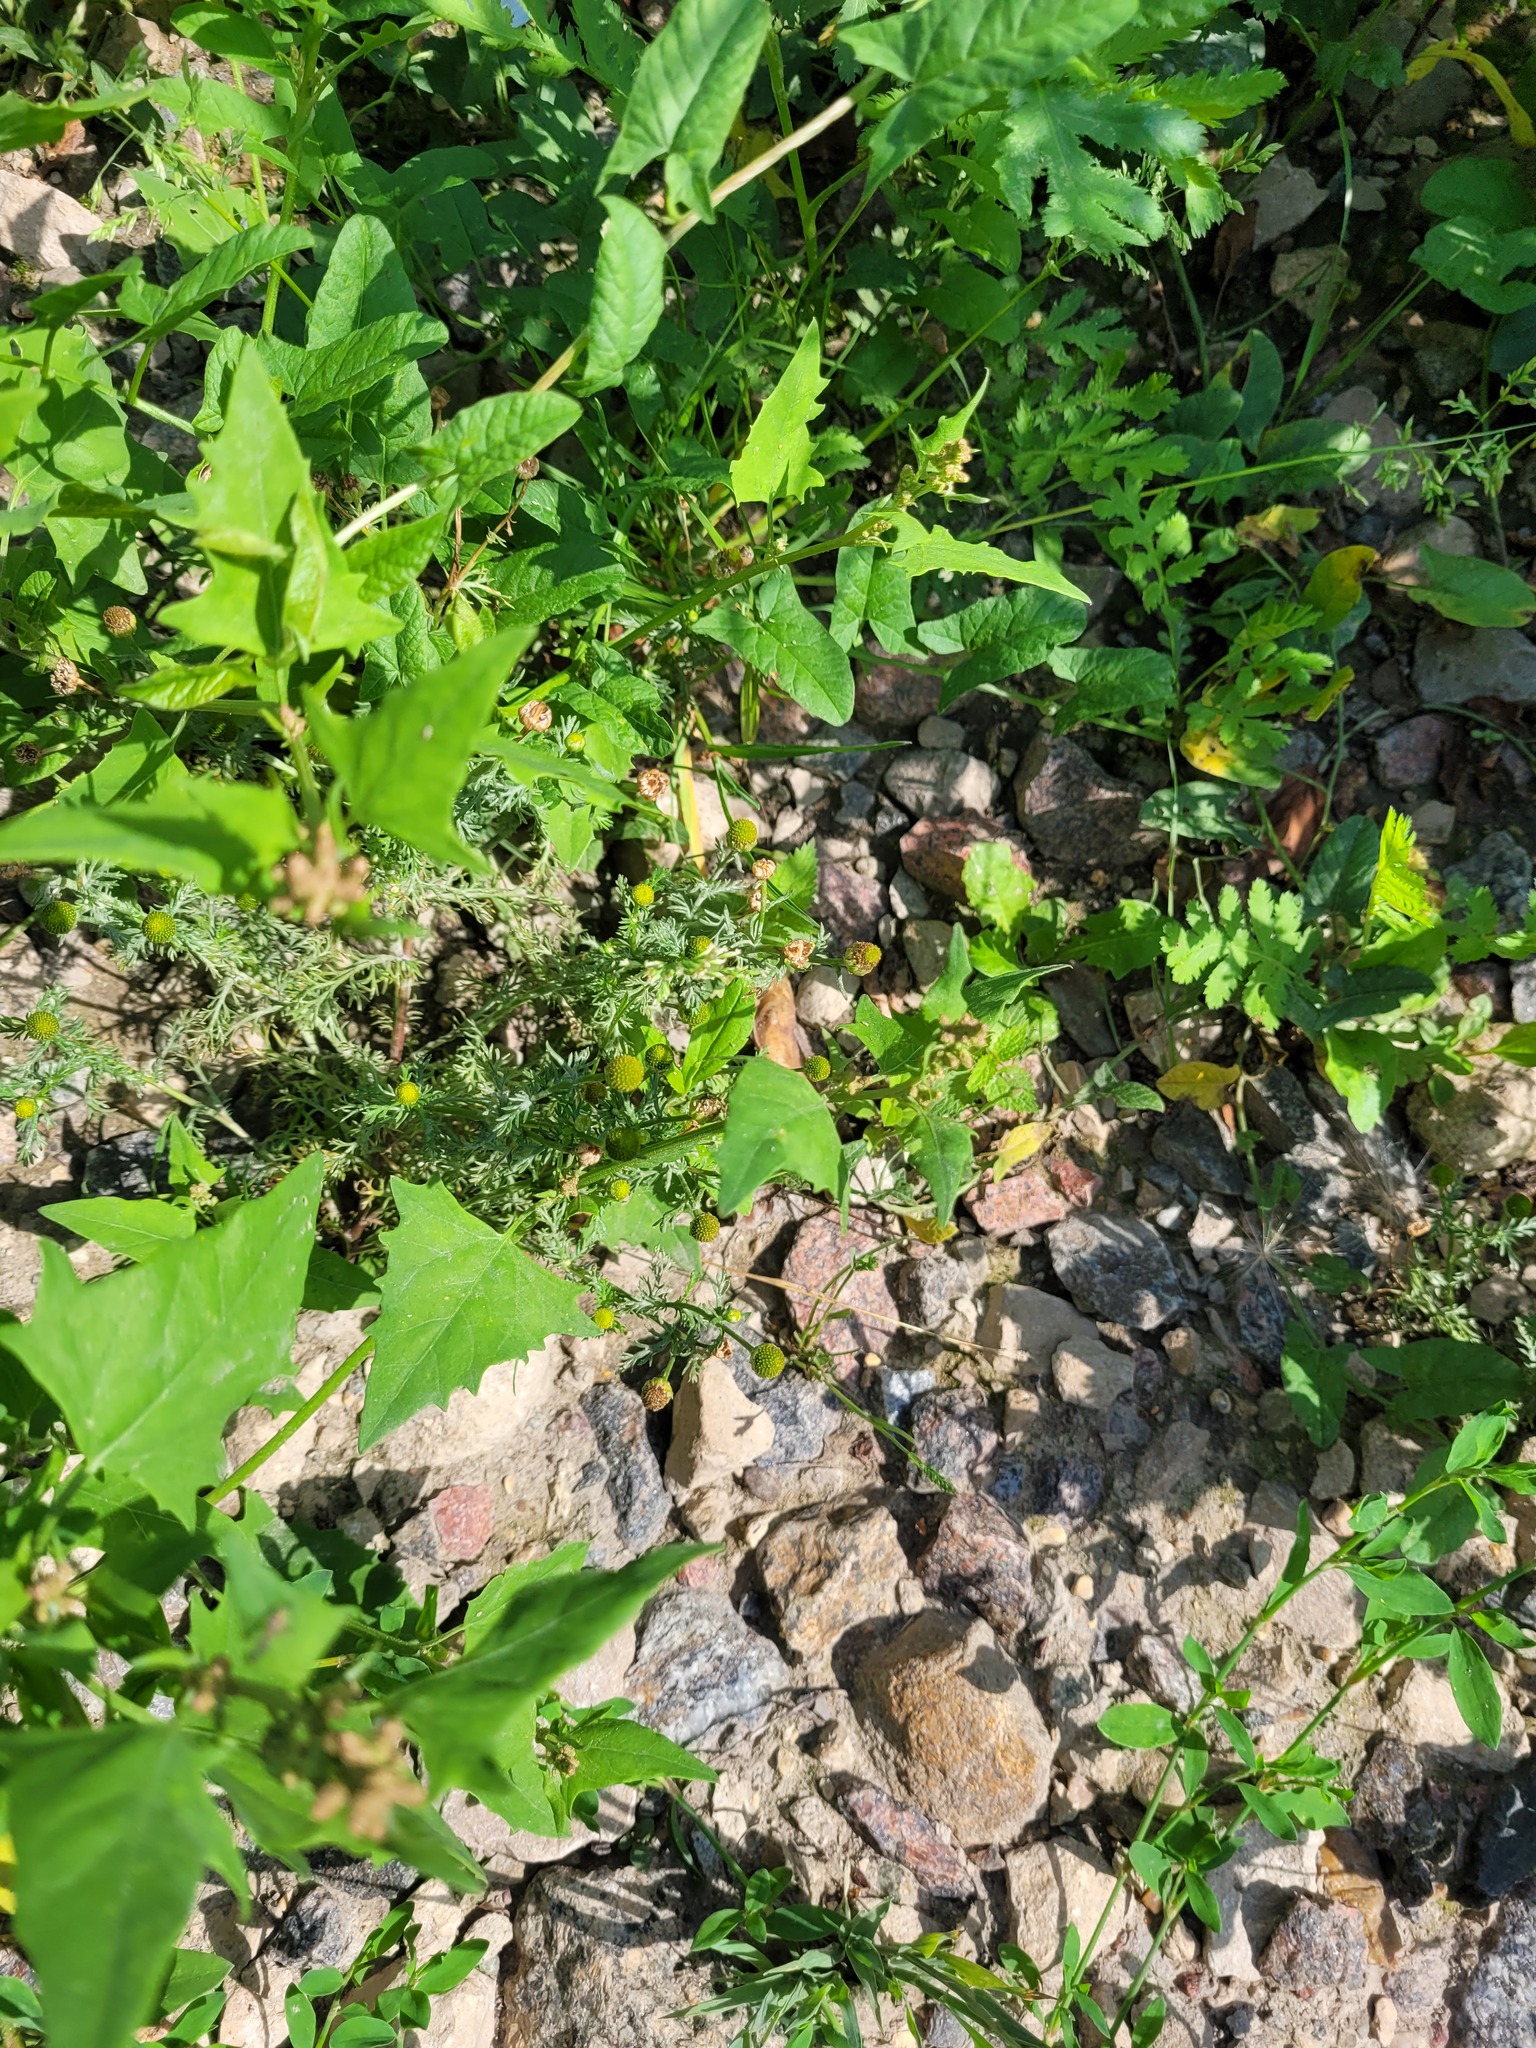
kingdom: Plantae
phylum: Tracheophyta
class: Magnoliopsida
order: Asterales
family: Asteraceae
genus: Matricaria
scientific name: Matricaria discoidea
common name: Disc mayweed
